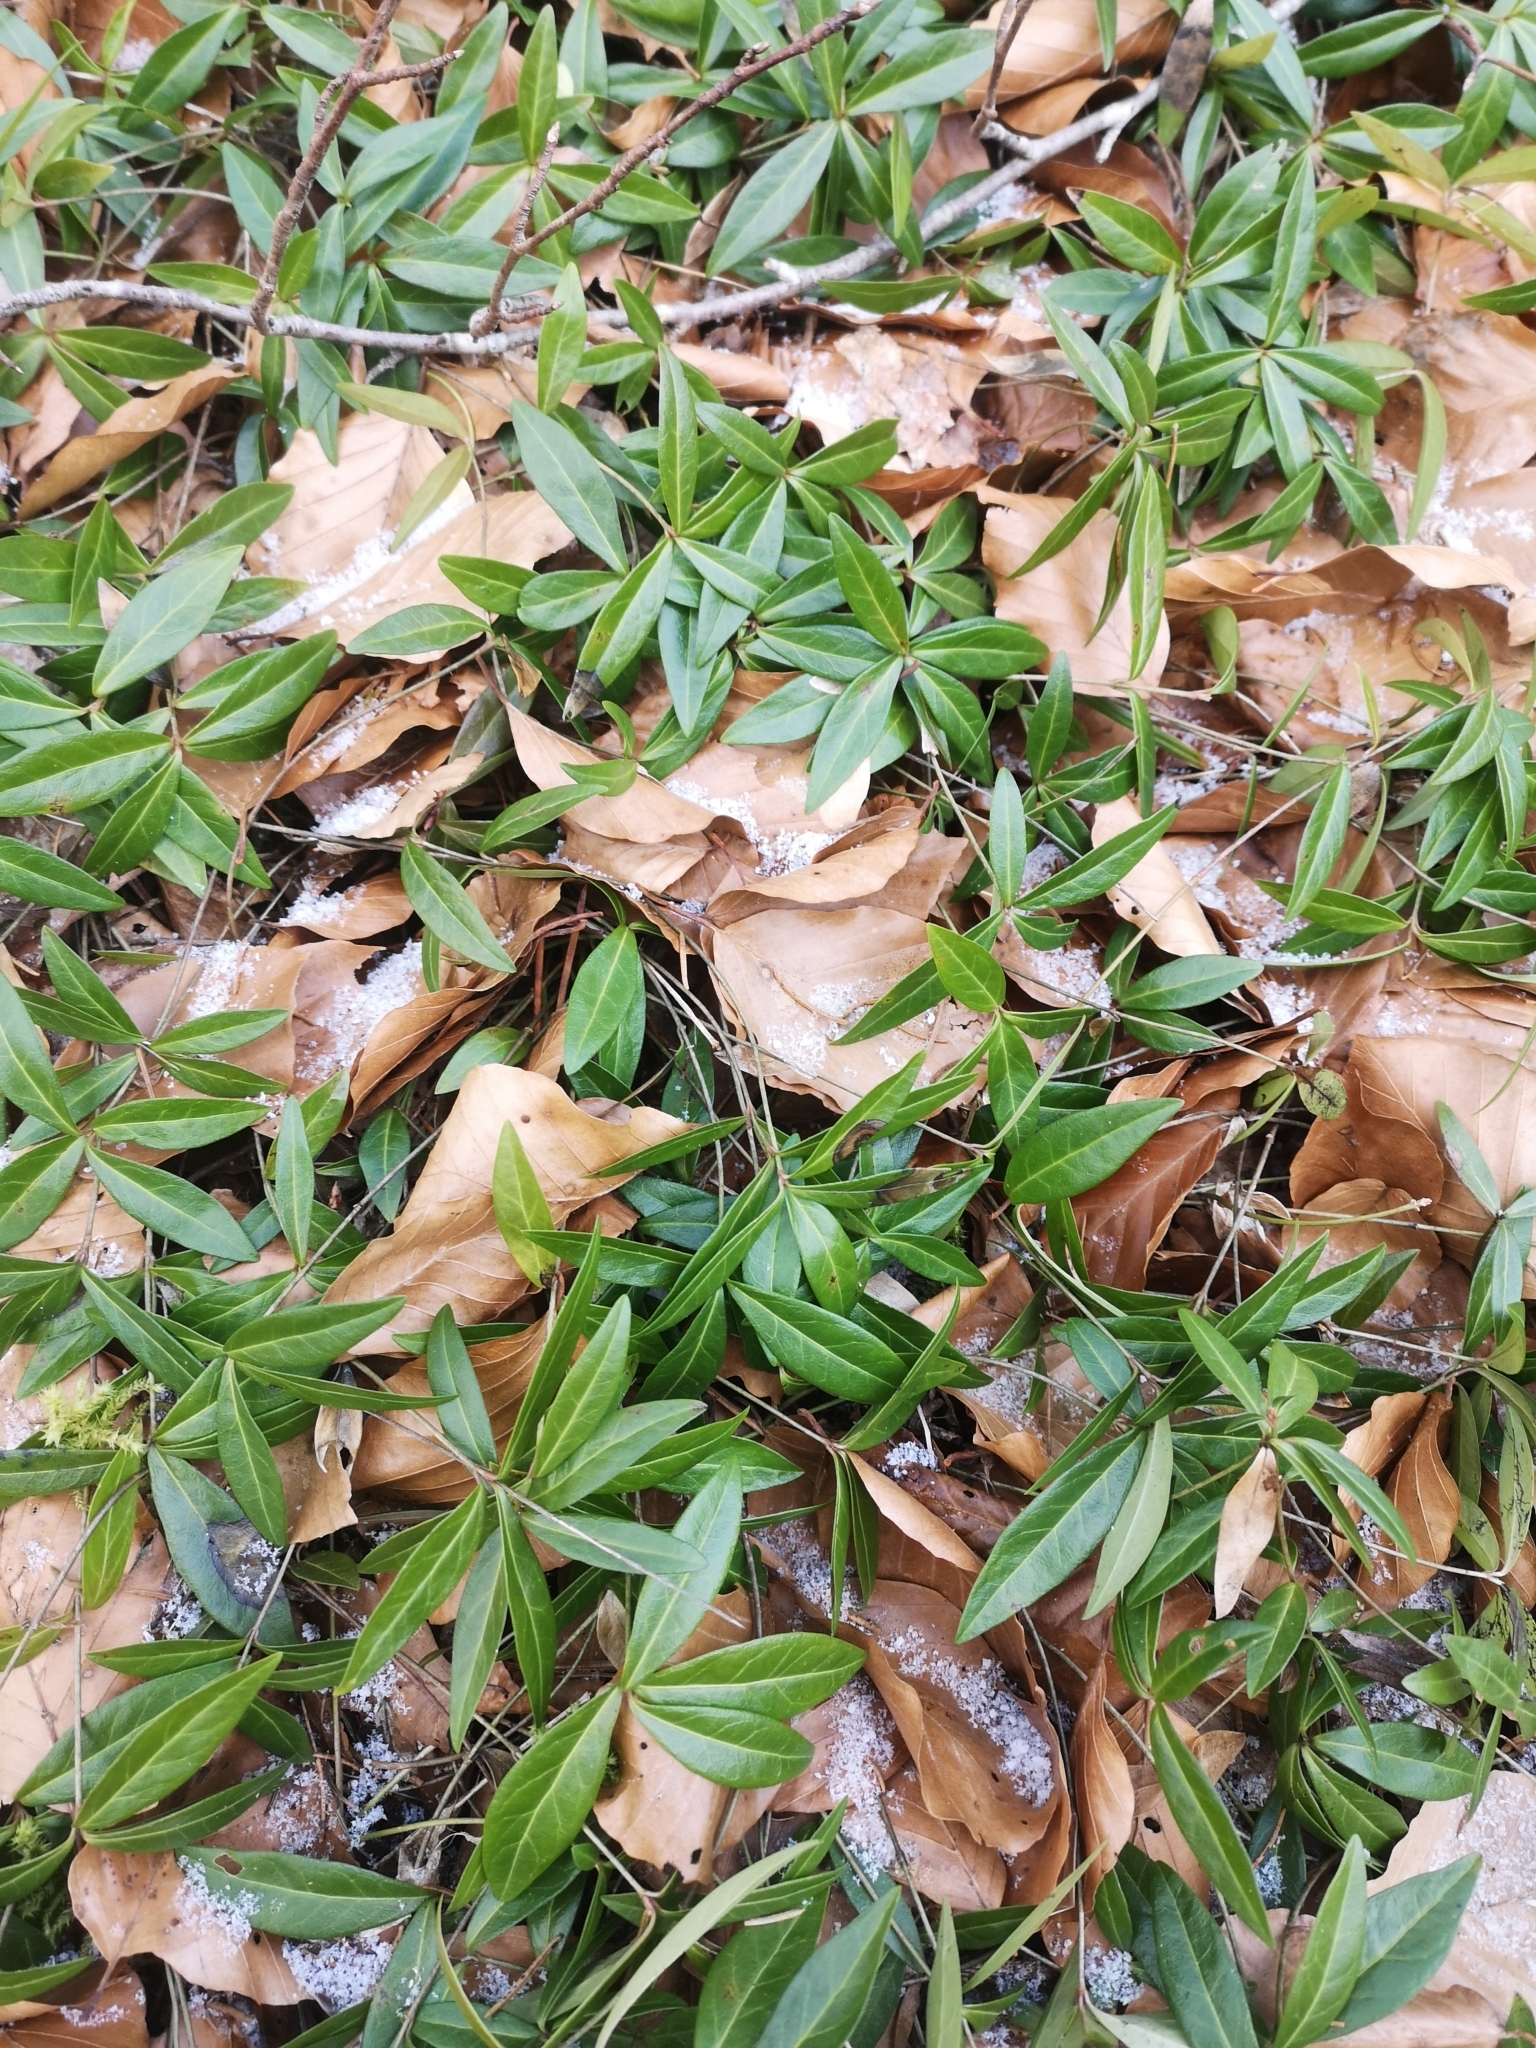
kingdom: Plantae
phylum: Tracheophyta
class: Magnoliopsida
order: Gentianales
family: Apocynaceae
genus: Vinca
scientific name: Vinca minor
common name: Lesser periwinkle
